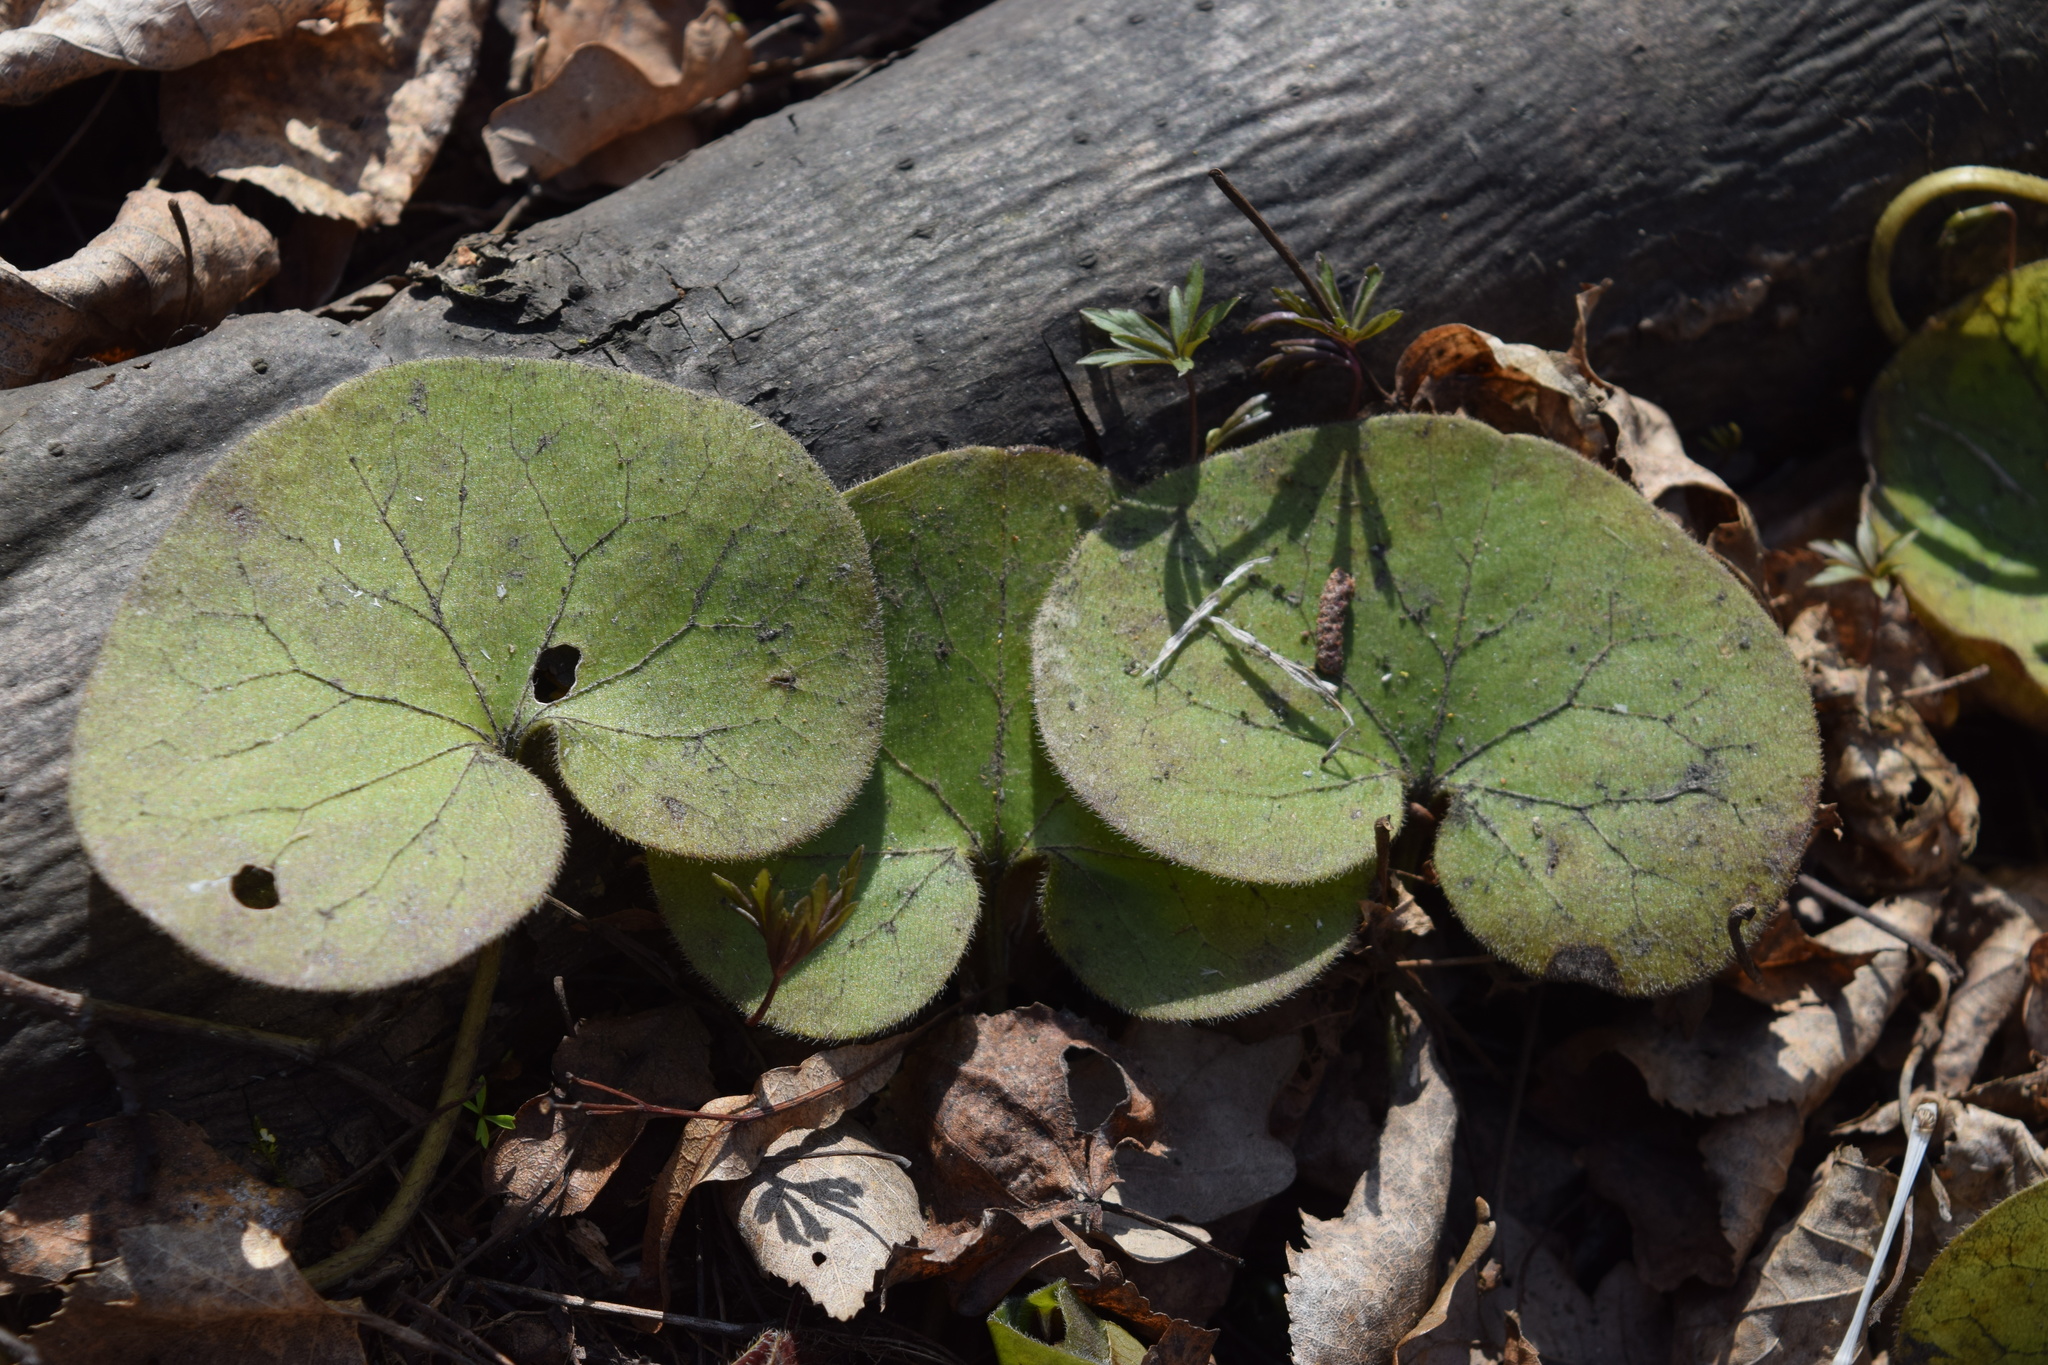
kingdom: Plantae
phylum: Tracheophyta
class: Magnoliopsida
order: Piperales
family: Aristolochiaceae
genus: Asarum
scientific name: Asarum europaeum
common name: Asarabacca
